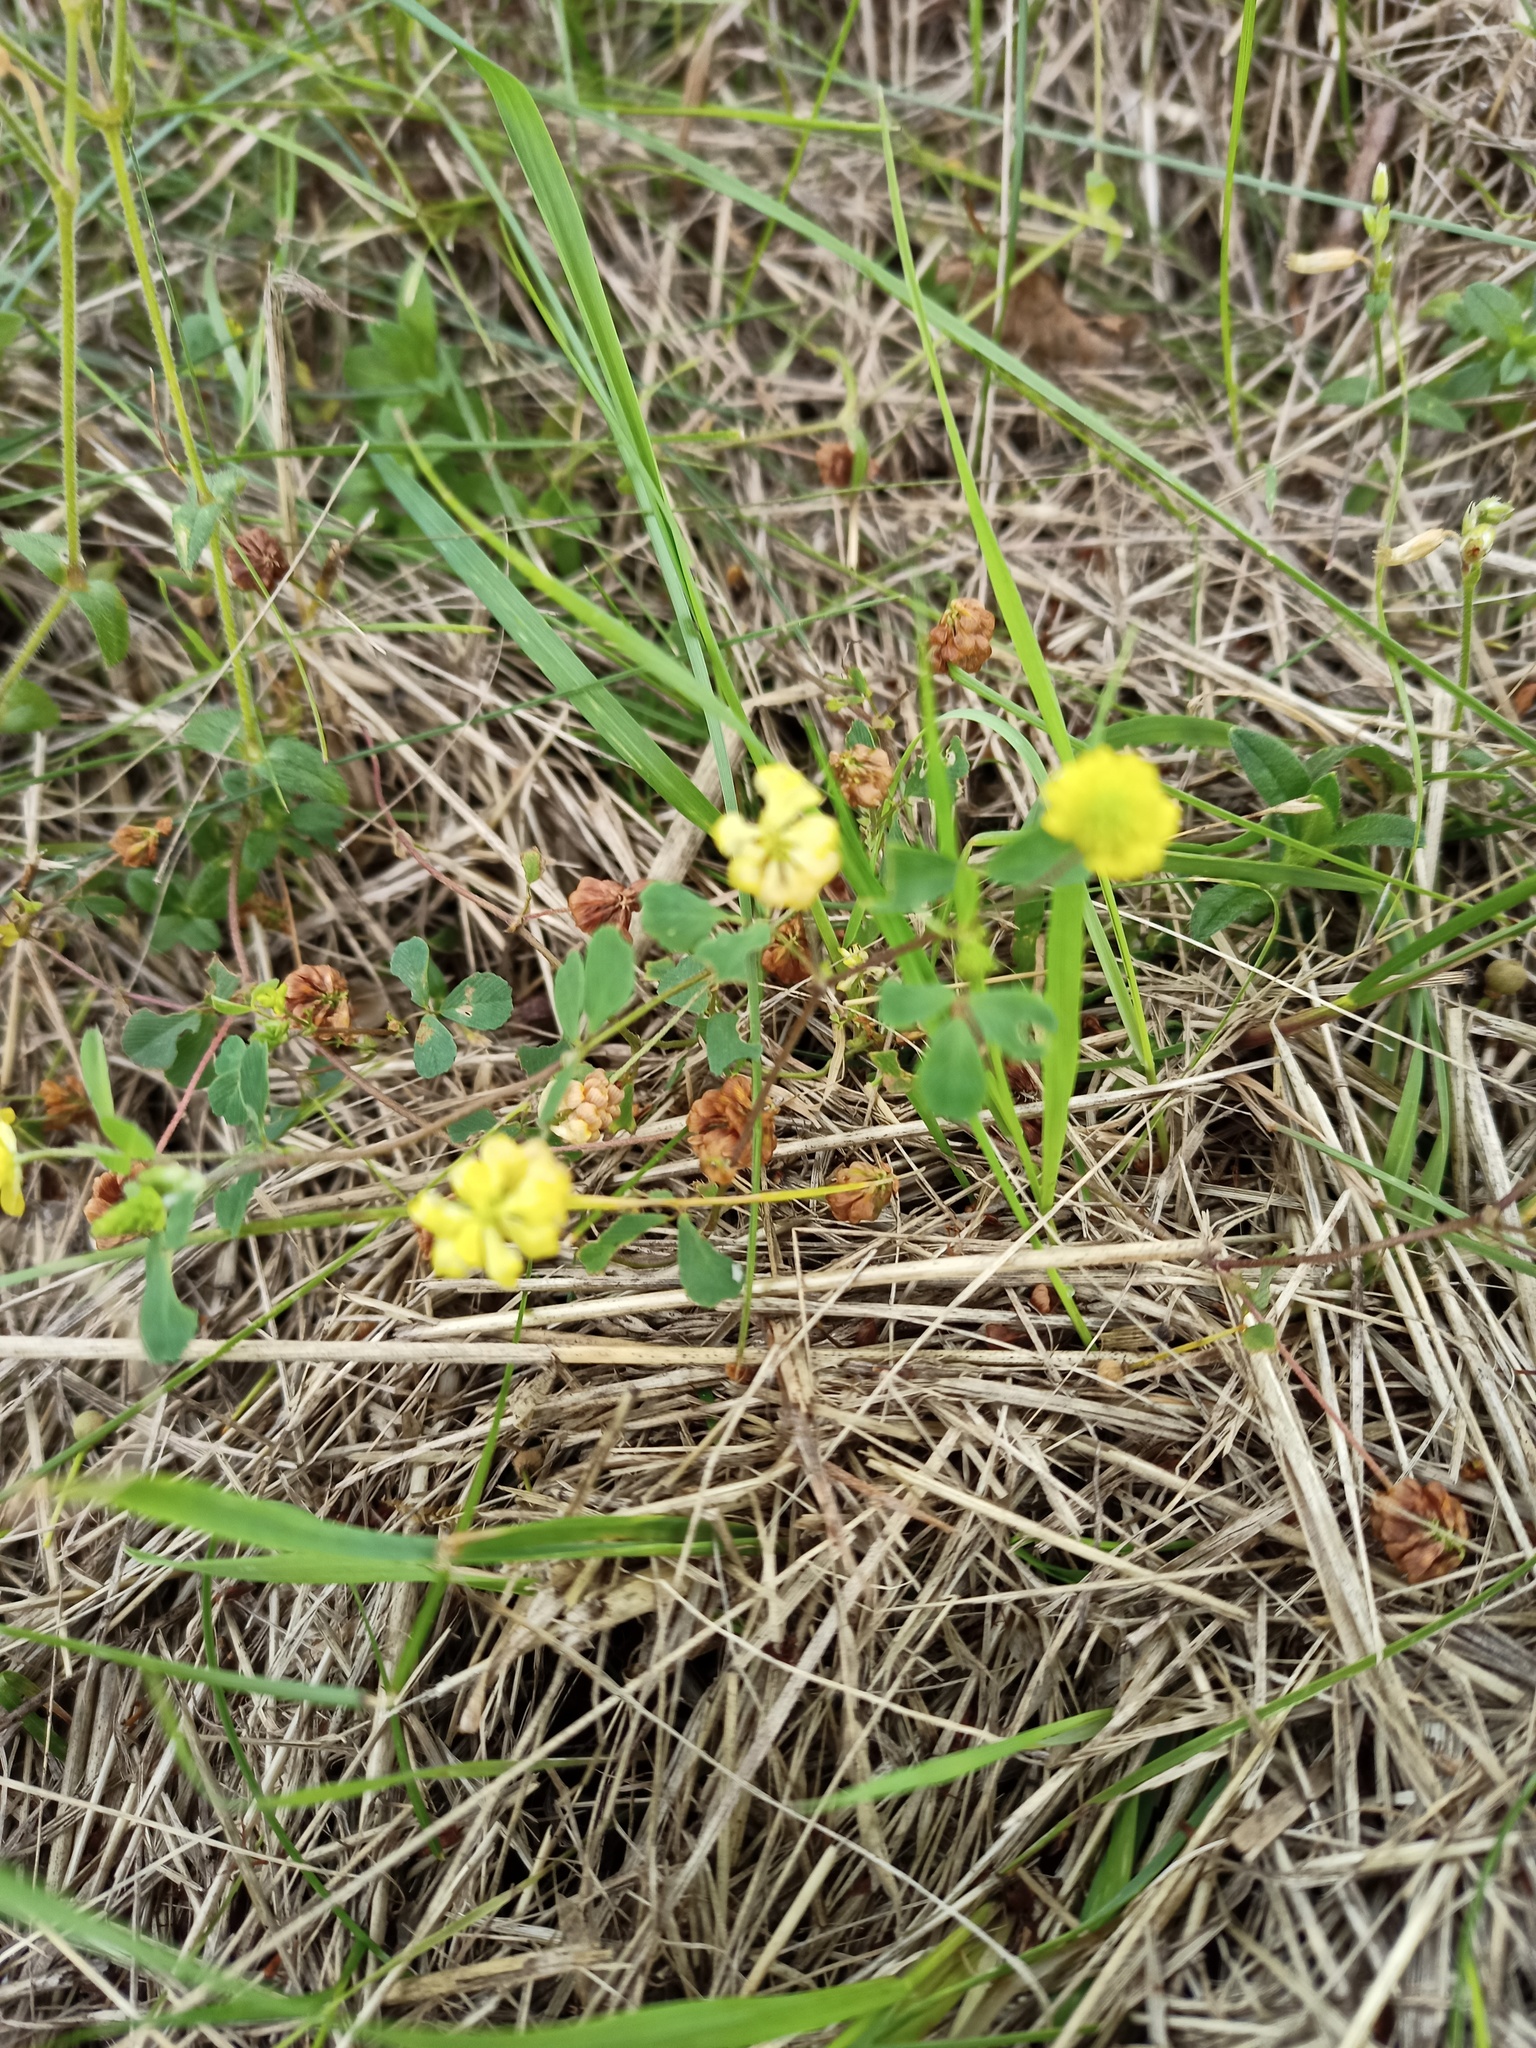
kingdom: Plantae
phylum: Tracheophyta
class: Magnoliopsida
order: Fabales
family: Fabaceae
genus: Trifolium
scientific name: Trifolium dubium
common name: Suckling clover
